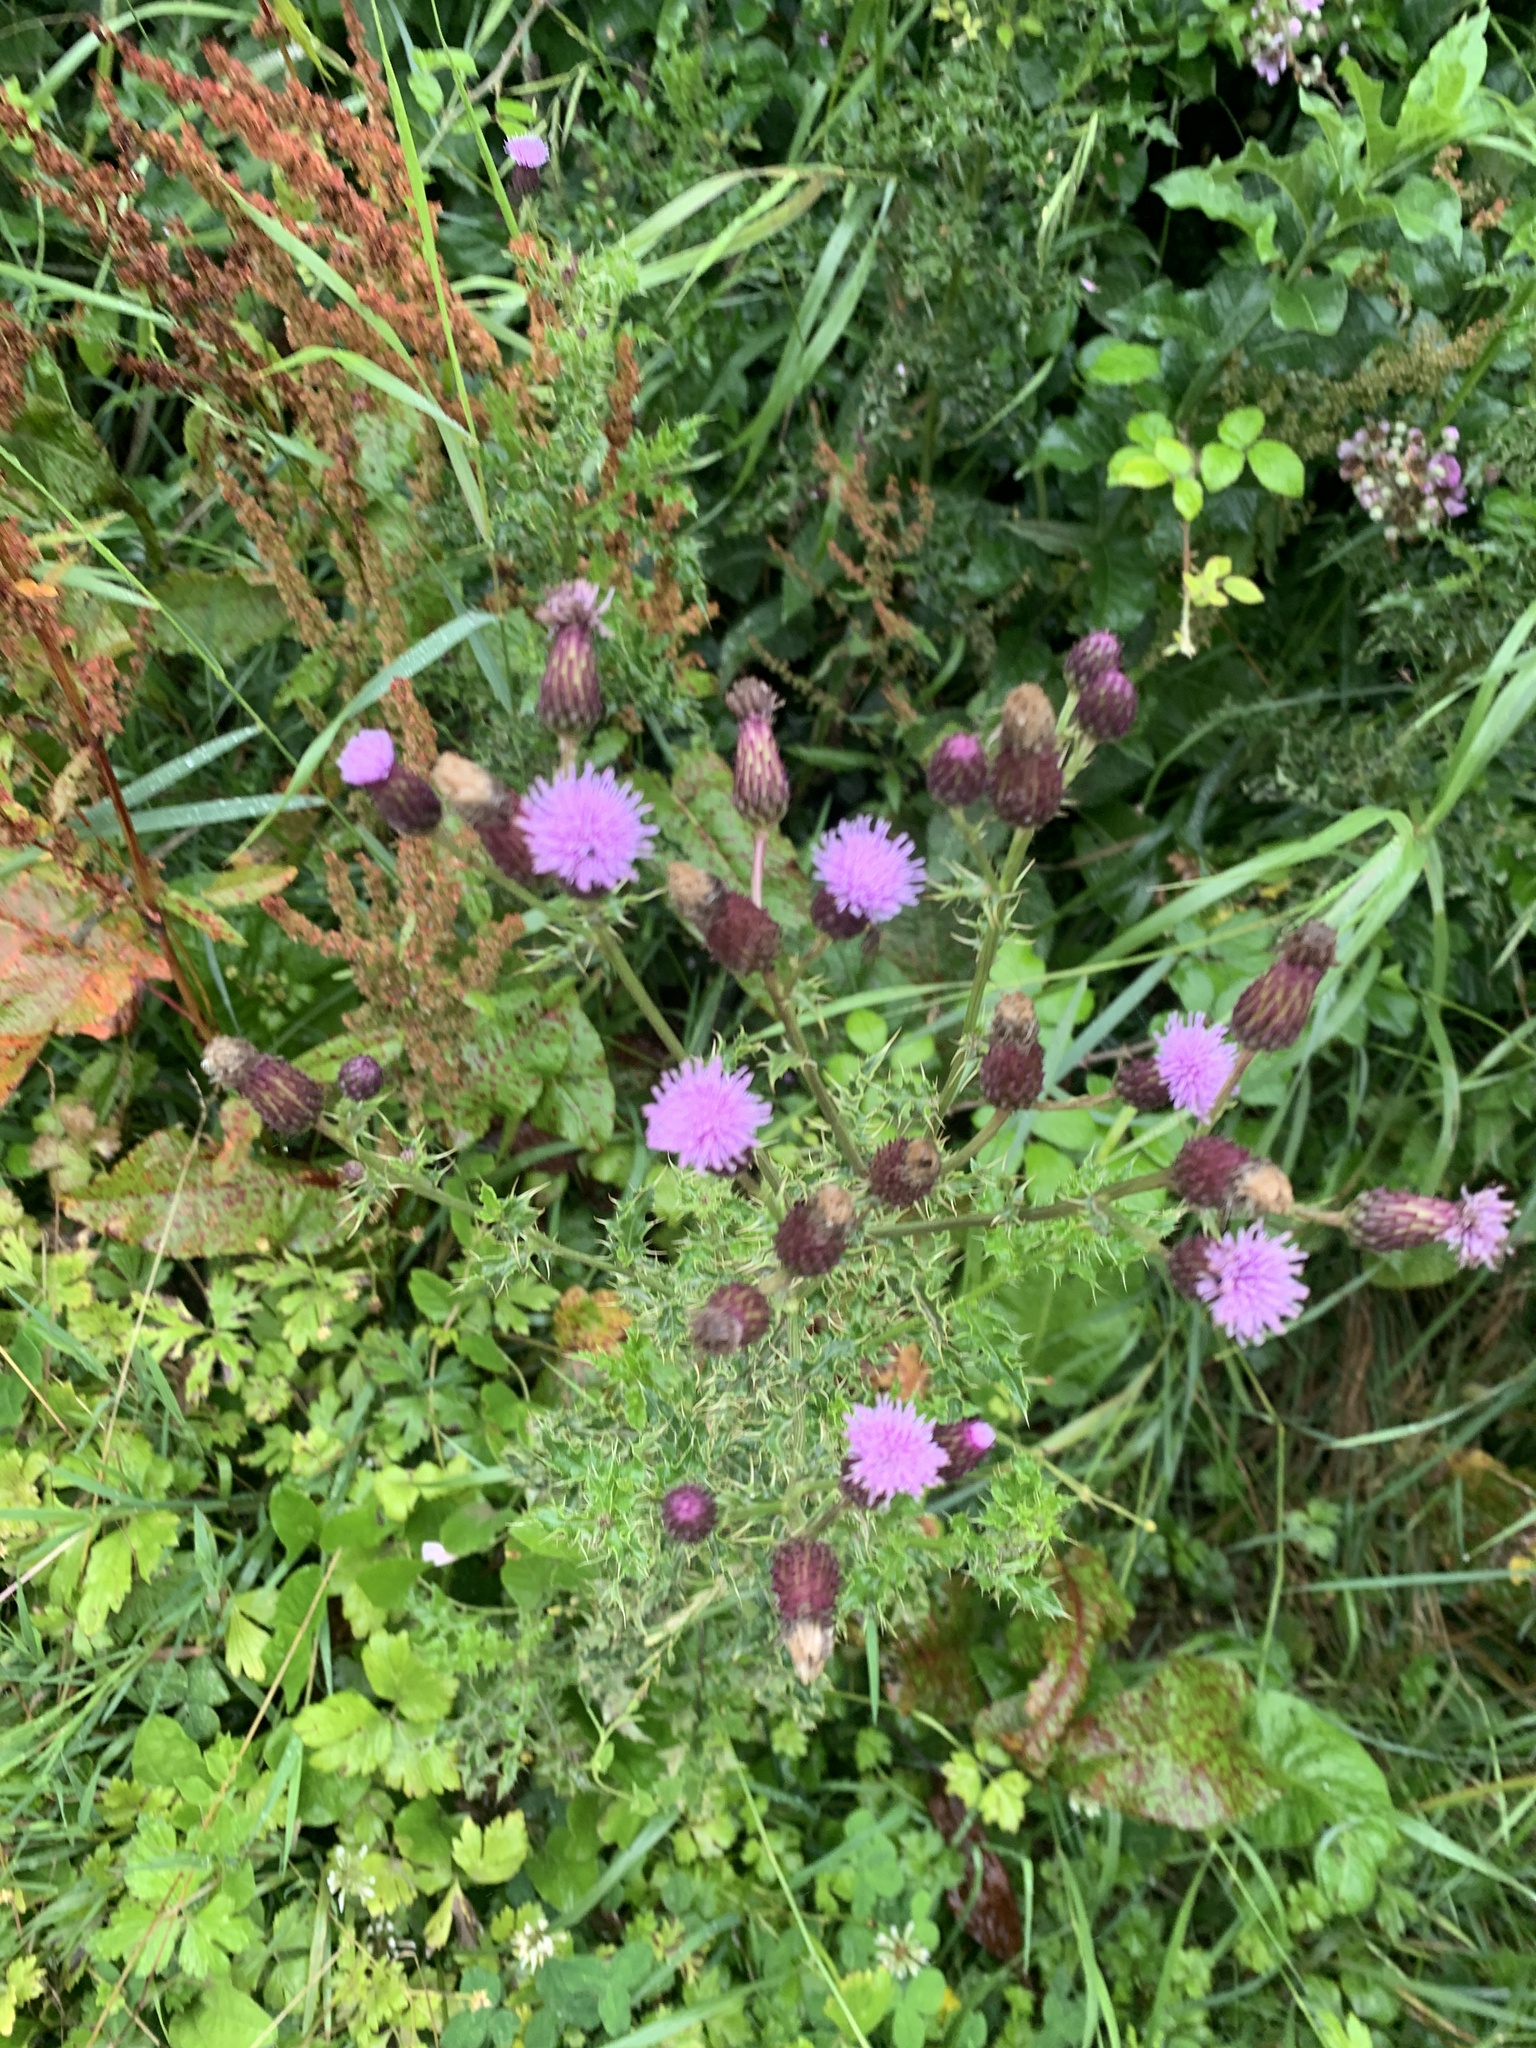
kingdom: Plantae
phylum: Tracheophyta
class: Magnoliopsida
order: Asterales
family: Asteraceae
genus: Cirsium
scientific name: Cirsium arvense
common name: Creeping thistle
